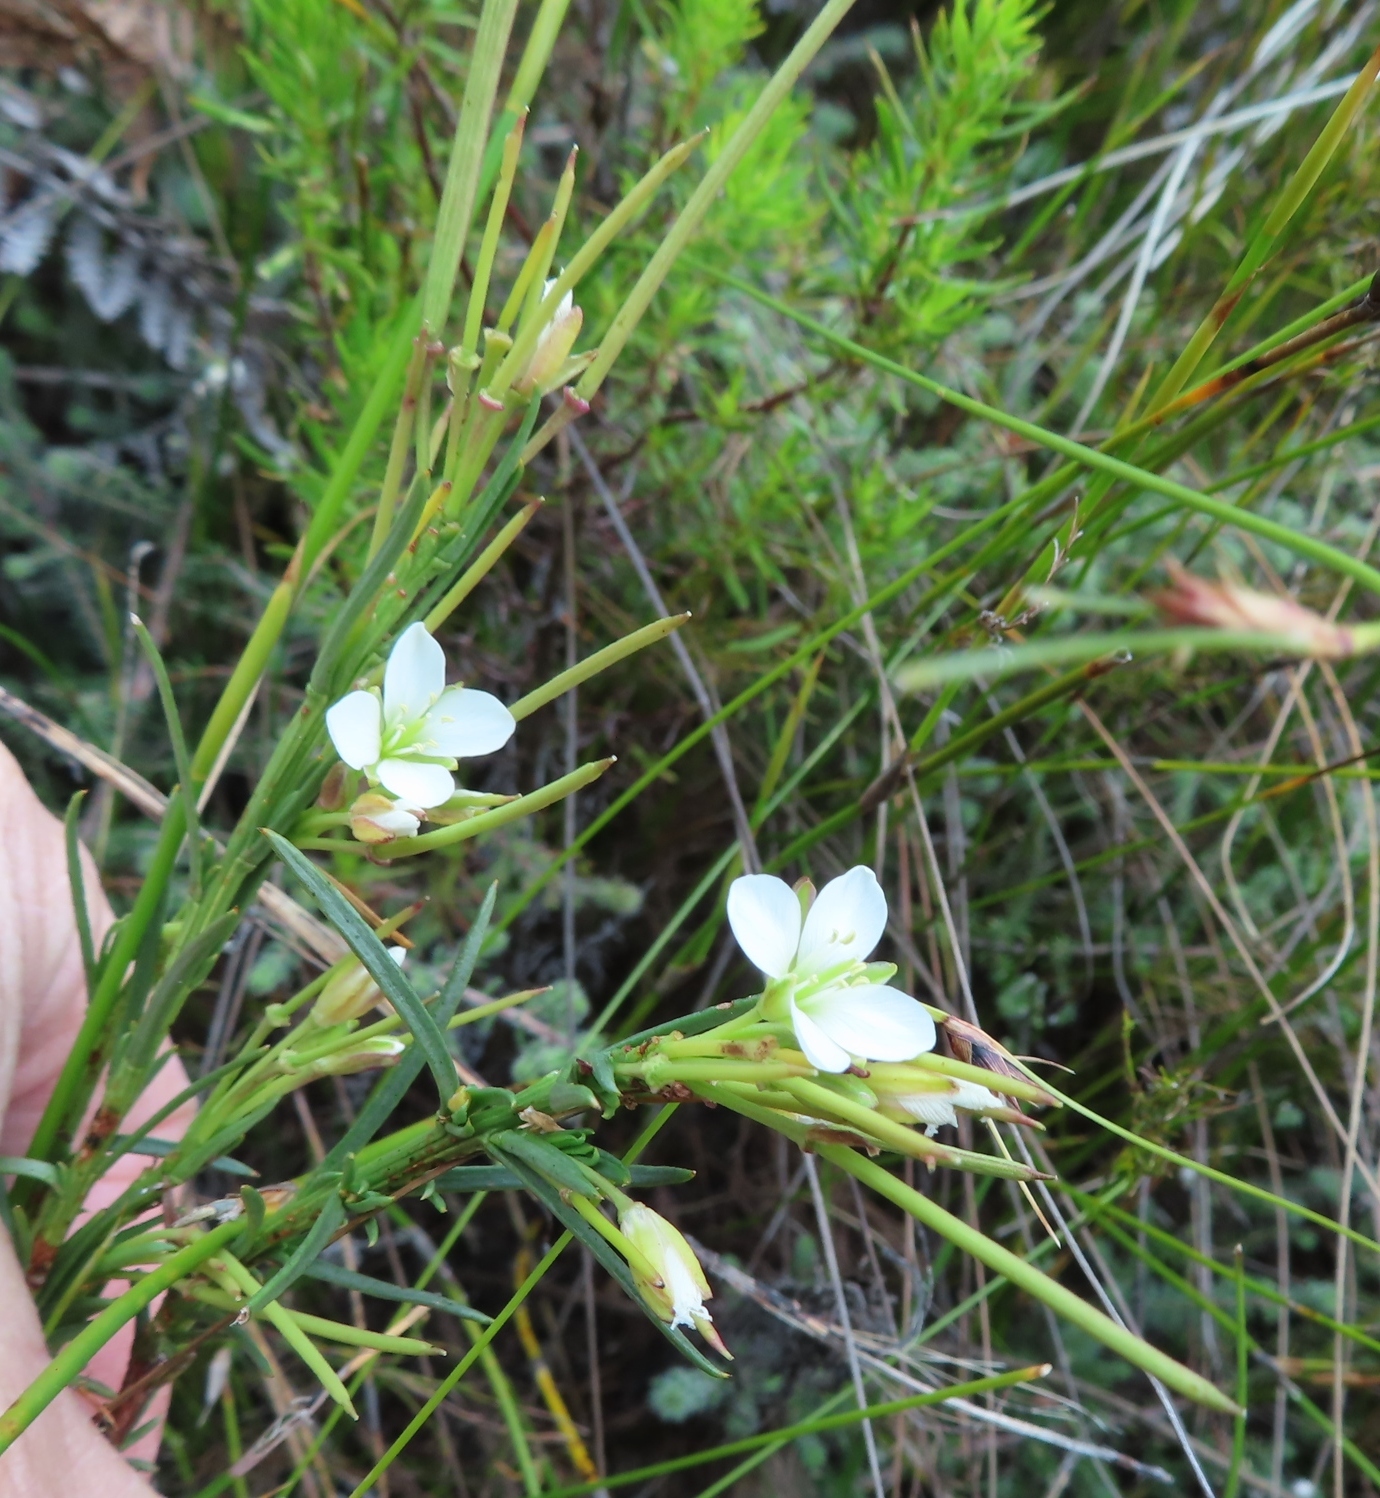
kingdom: Plantae
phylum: Tracheophyta
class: Magnoliopsida
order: Brassicales
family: Brassicaceae
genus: Heliophila
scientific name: Heliophila scoparia
